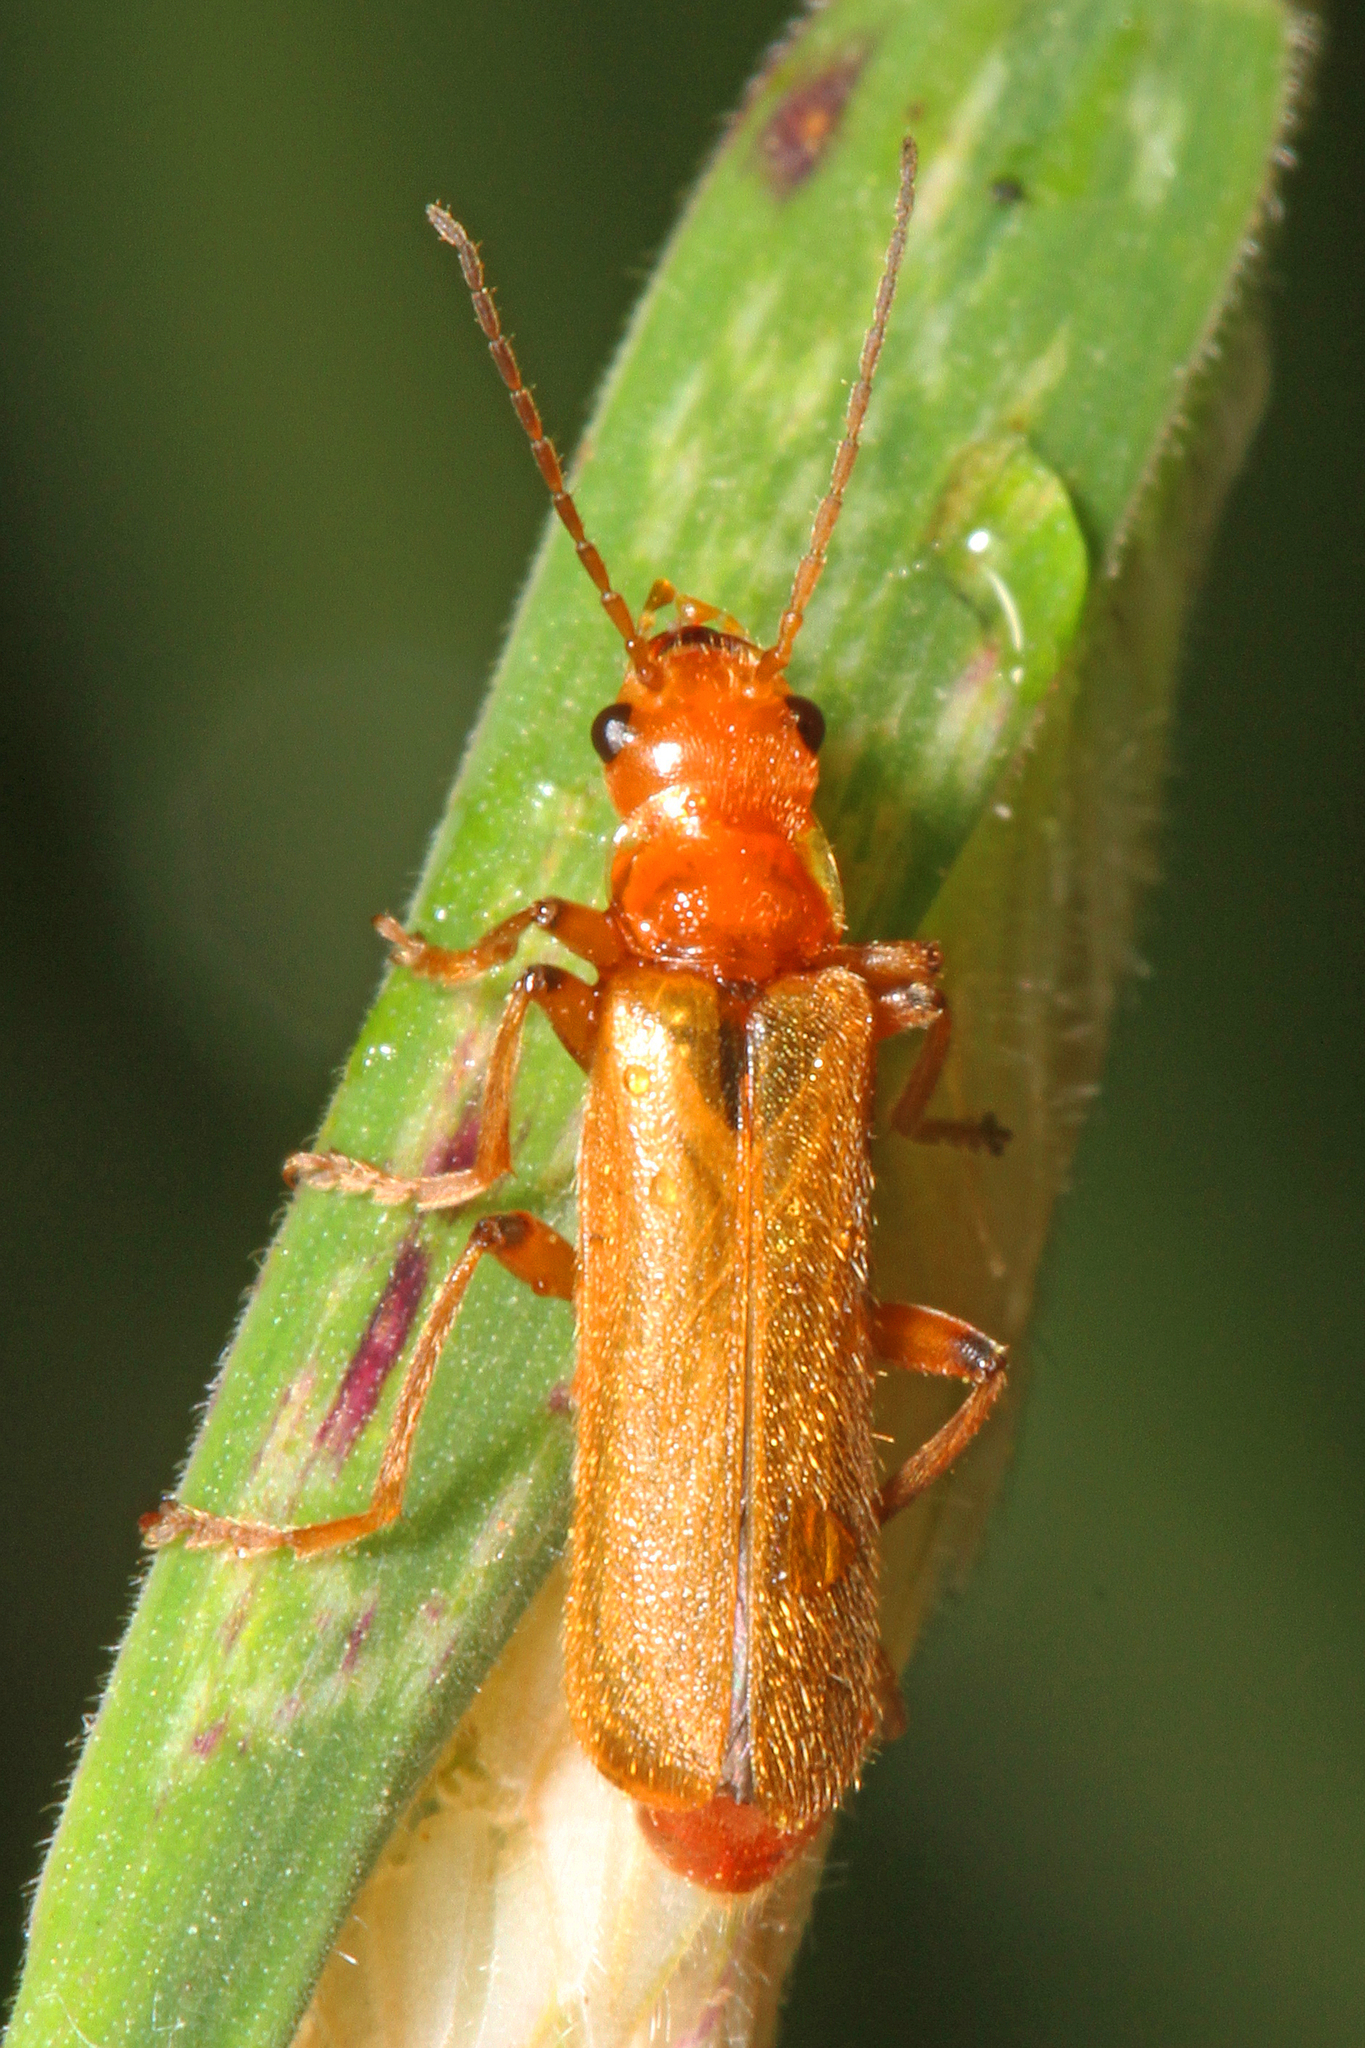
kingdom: Animalia
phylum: Arthropoda
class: Insecta
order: Coleoptera
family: Cantharidae
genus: Cantharis
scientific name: Cantharis cryptica
